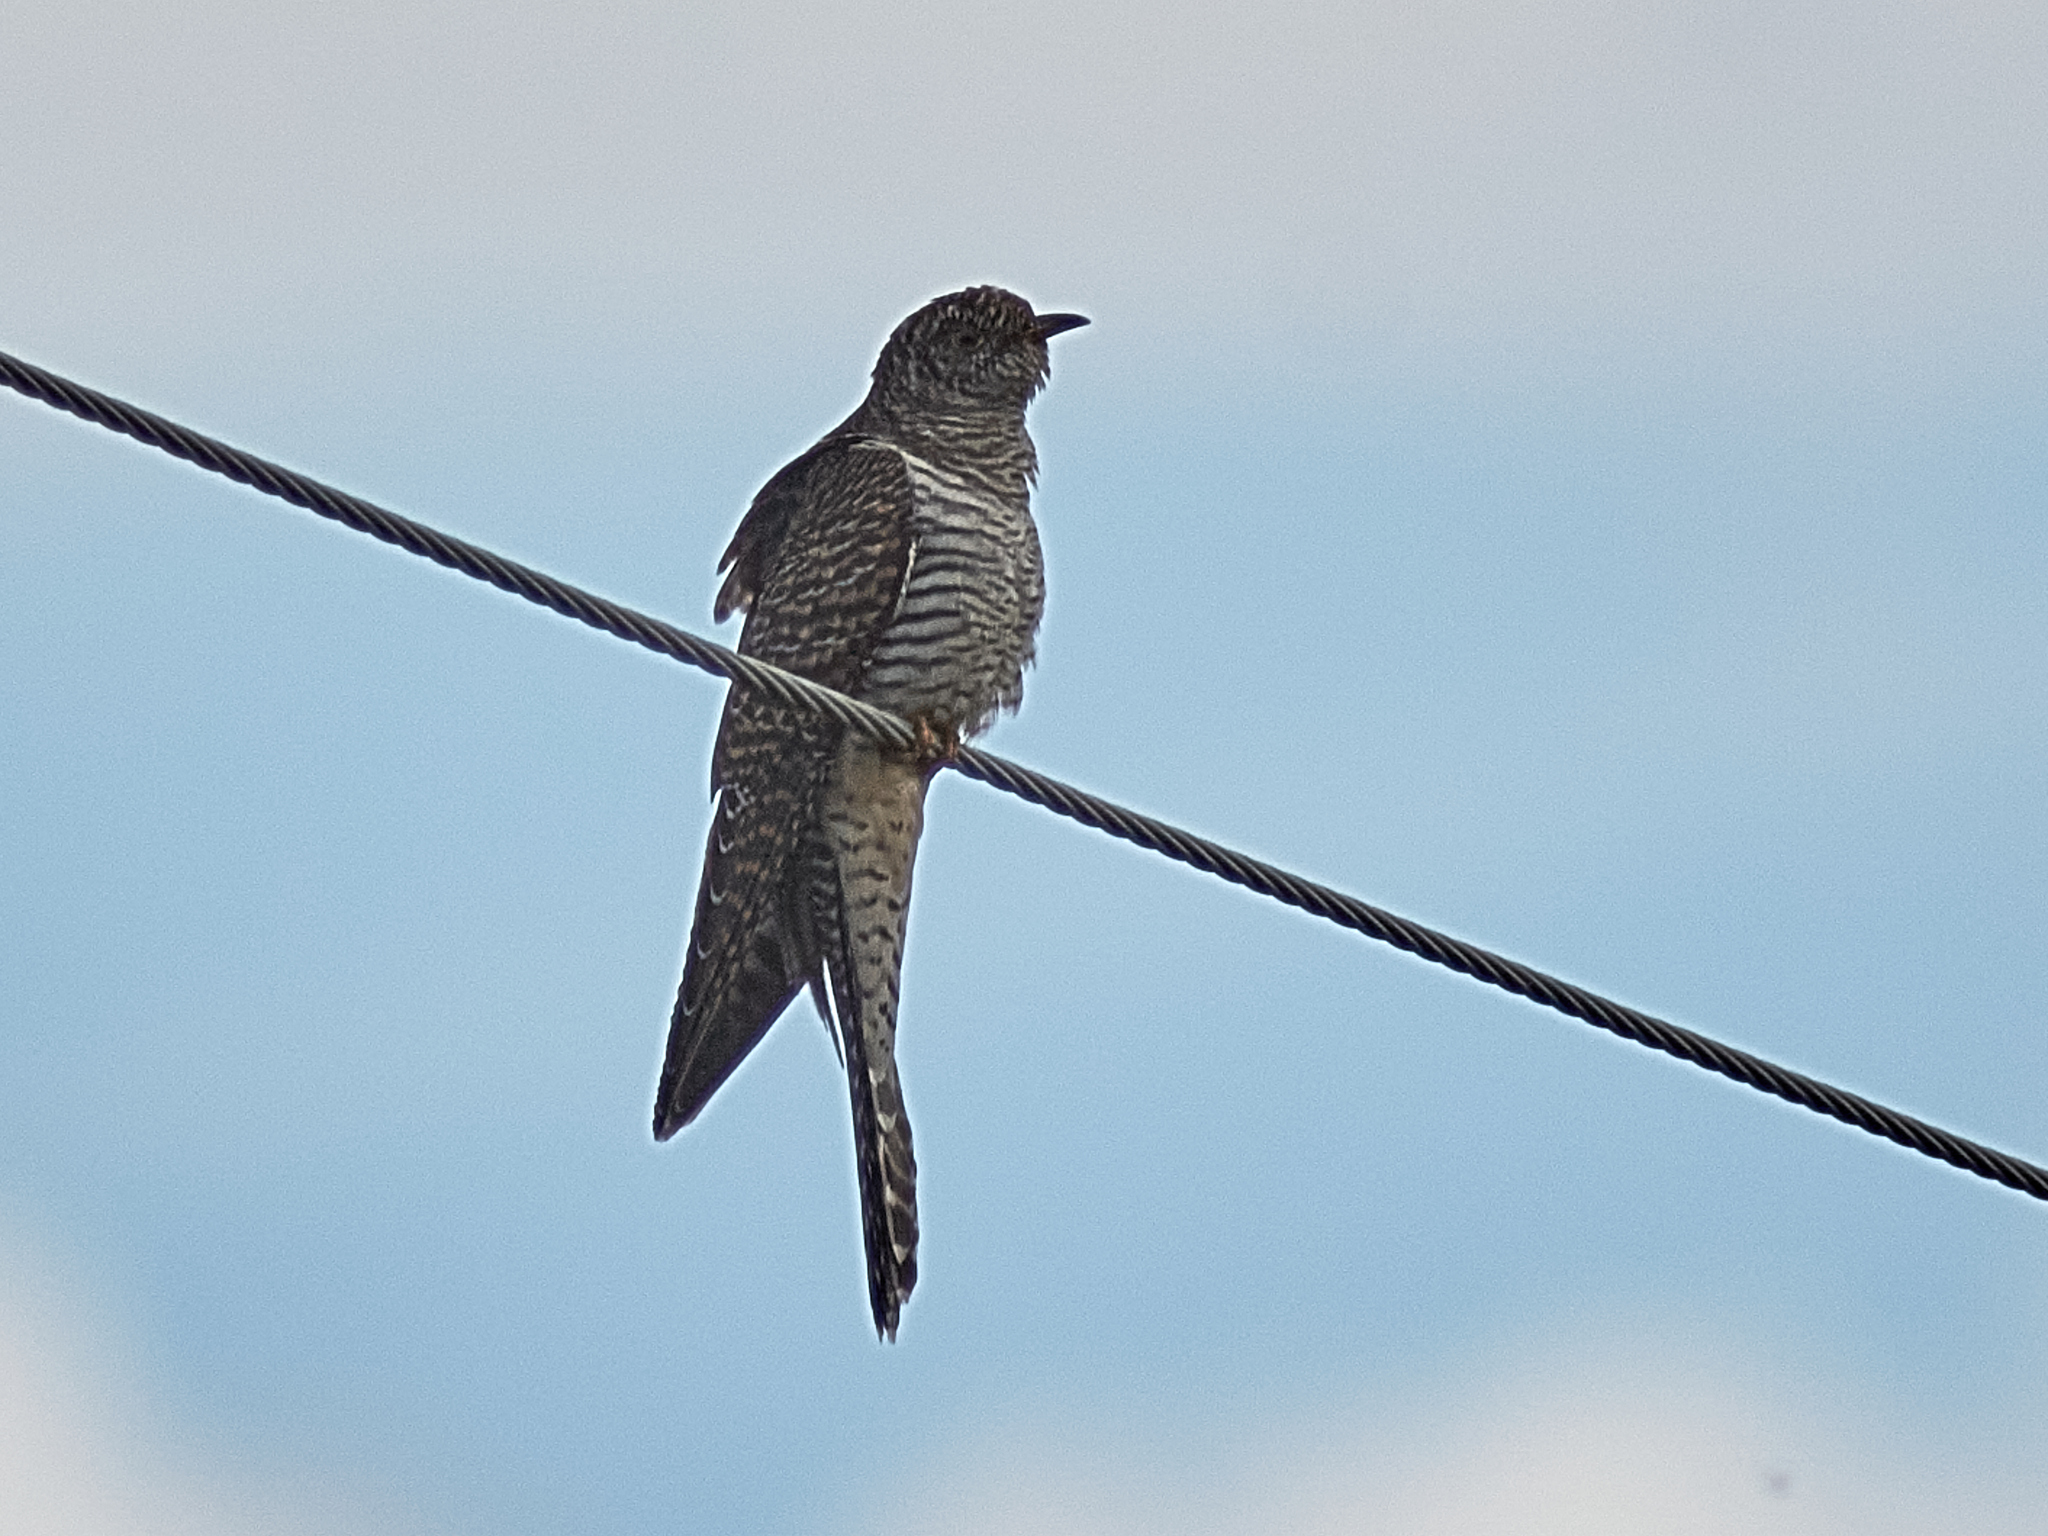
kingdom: Animalia
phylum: Chordata
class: Aves
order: Cuculiformes
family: Cuculidae
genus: Cuculus
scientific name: Cuculus canorus
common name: Common cuckoo
